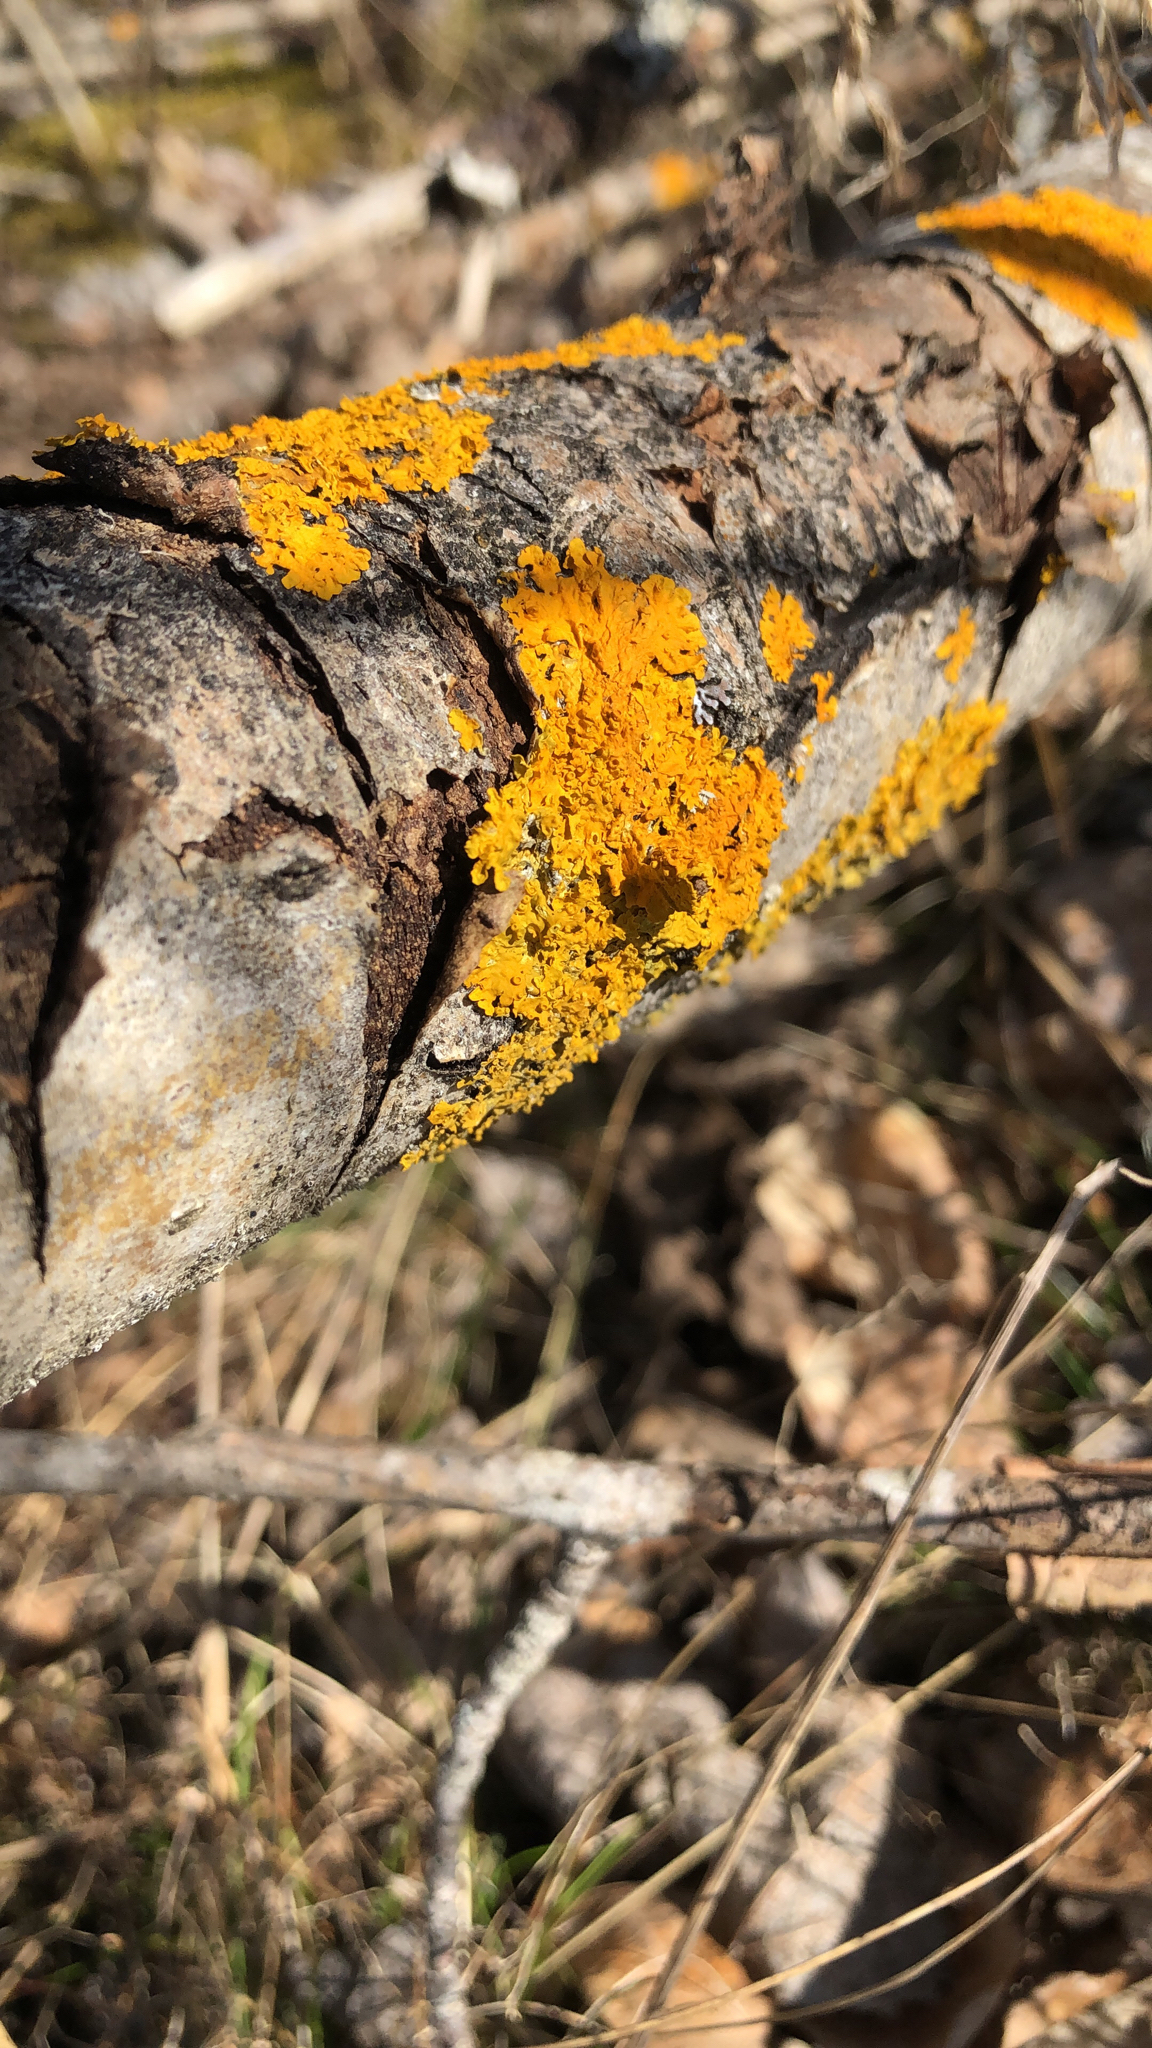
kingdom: Fungi
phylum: Ascomycota
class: Lecanoromycetes
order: Teloschistales
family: Teloschistaceae
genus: Xanthoria
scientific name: Xanthoria parietina
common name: Common orange lichen
